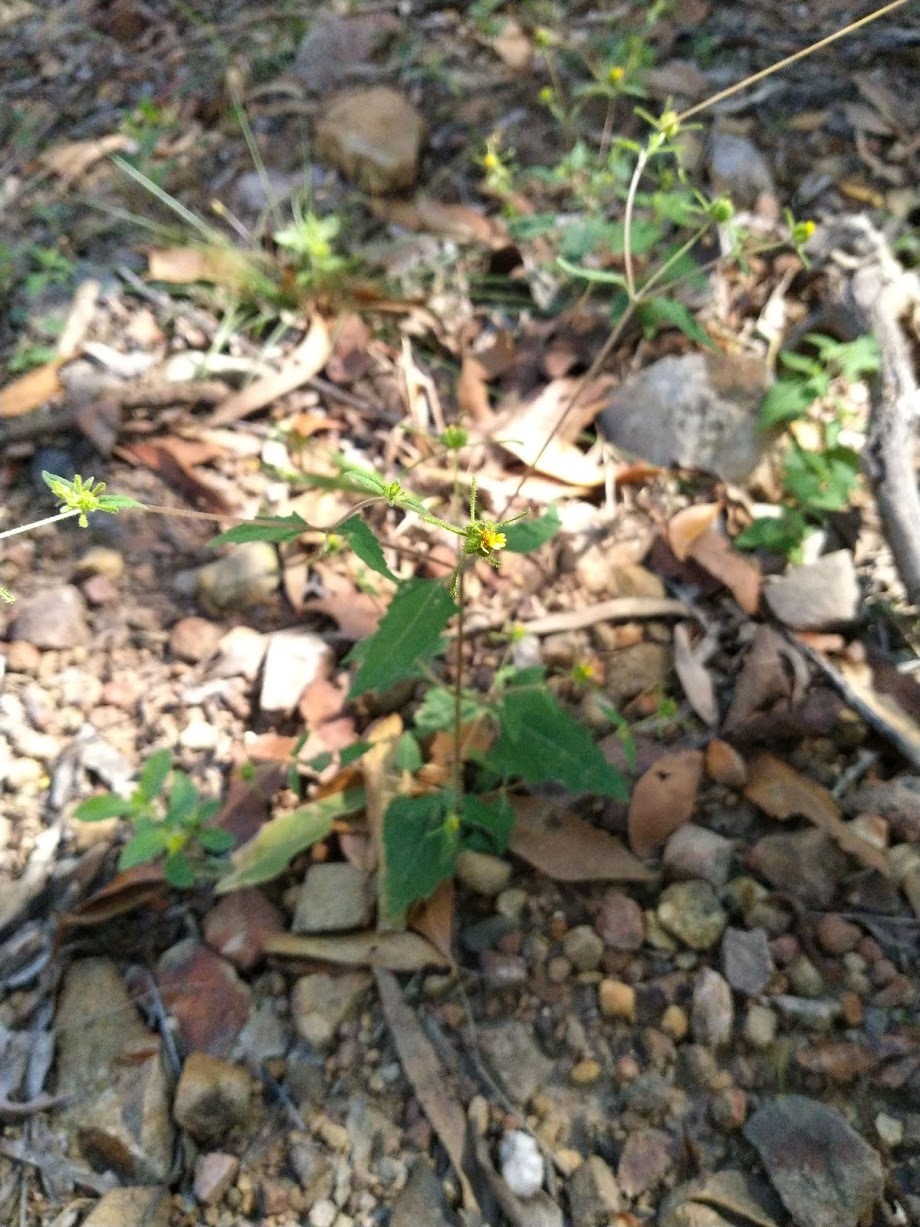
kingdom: Plantae
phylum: Tracheophyta
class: Magnoliopsida
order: Asterales
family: Asteraceae
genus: Sigesbeckia
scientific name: Sigesbeckia orientalis
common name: Eastern st paul's-wort
